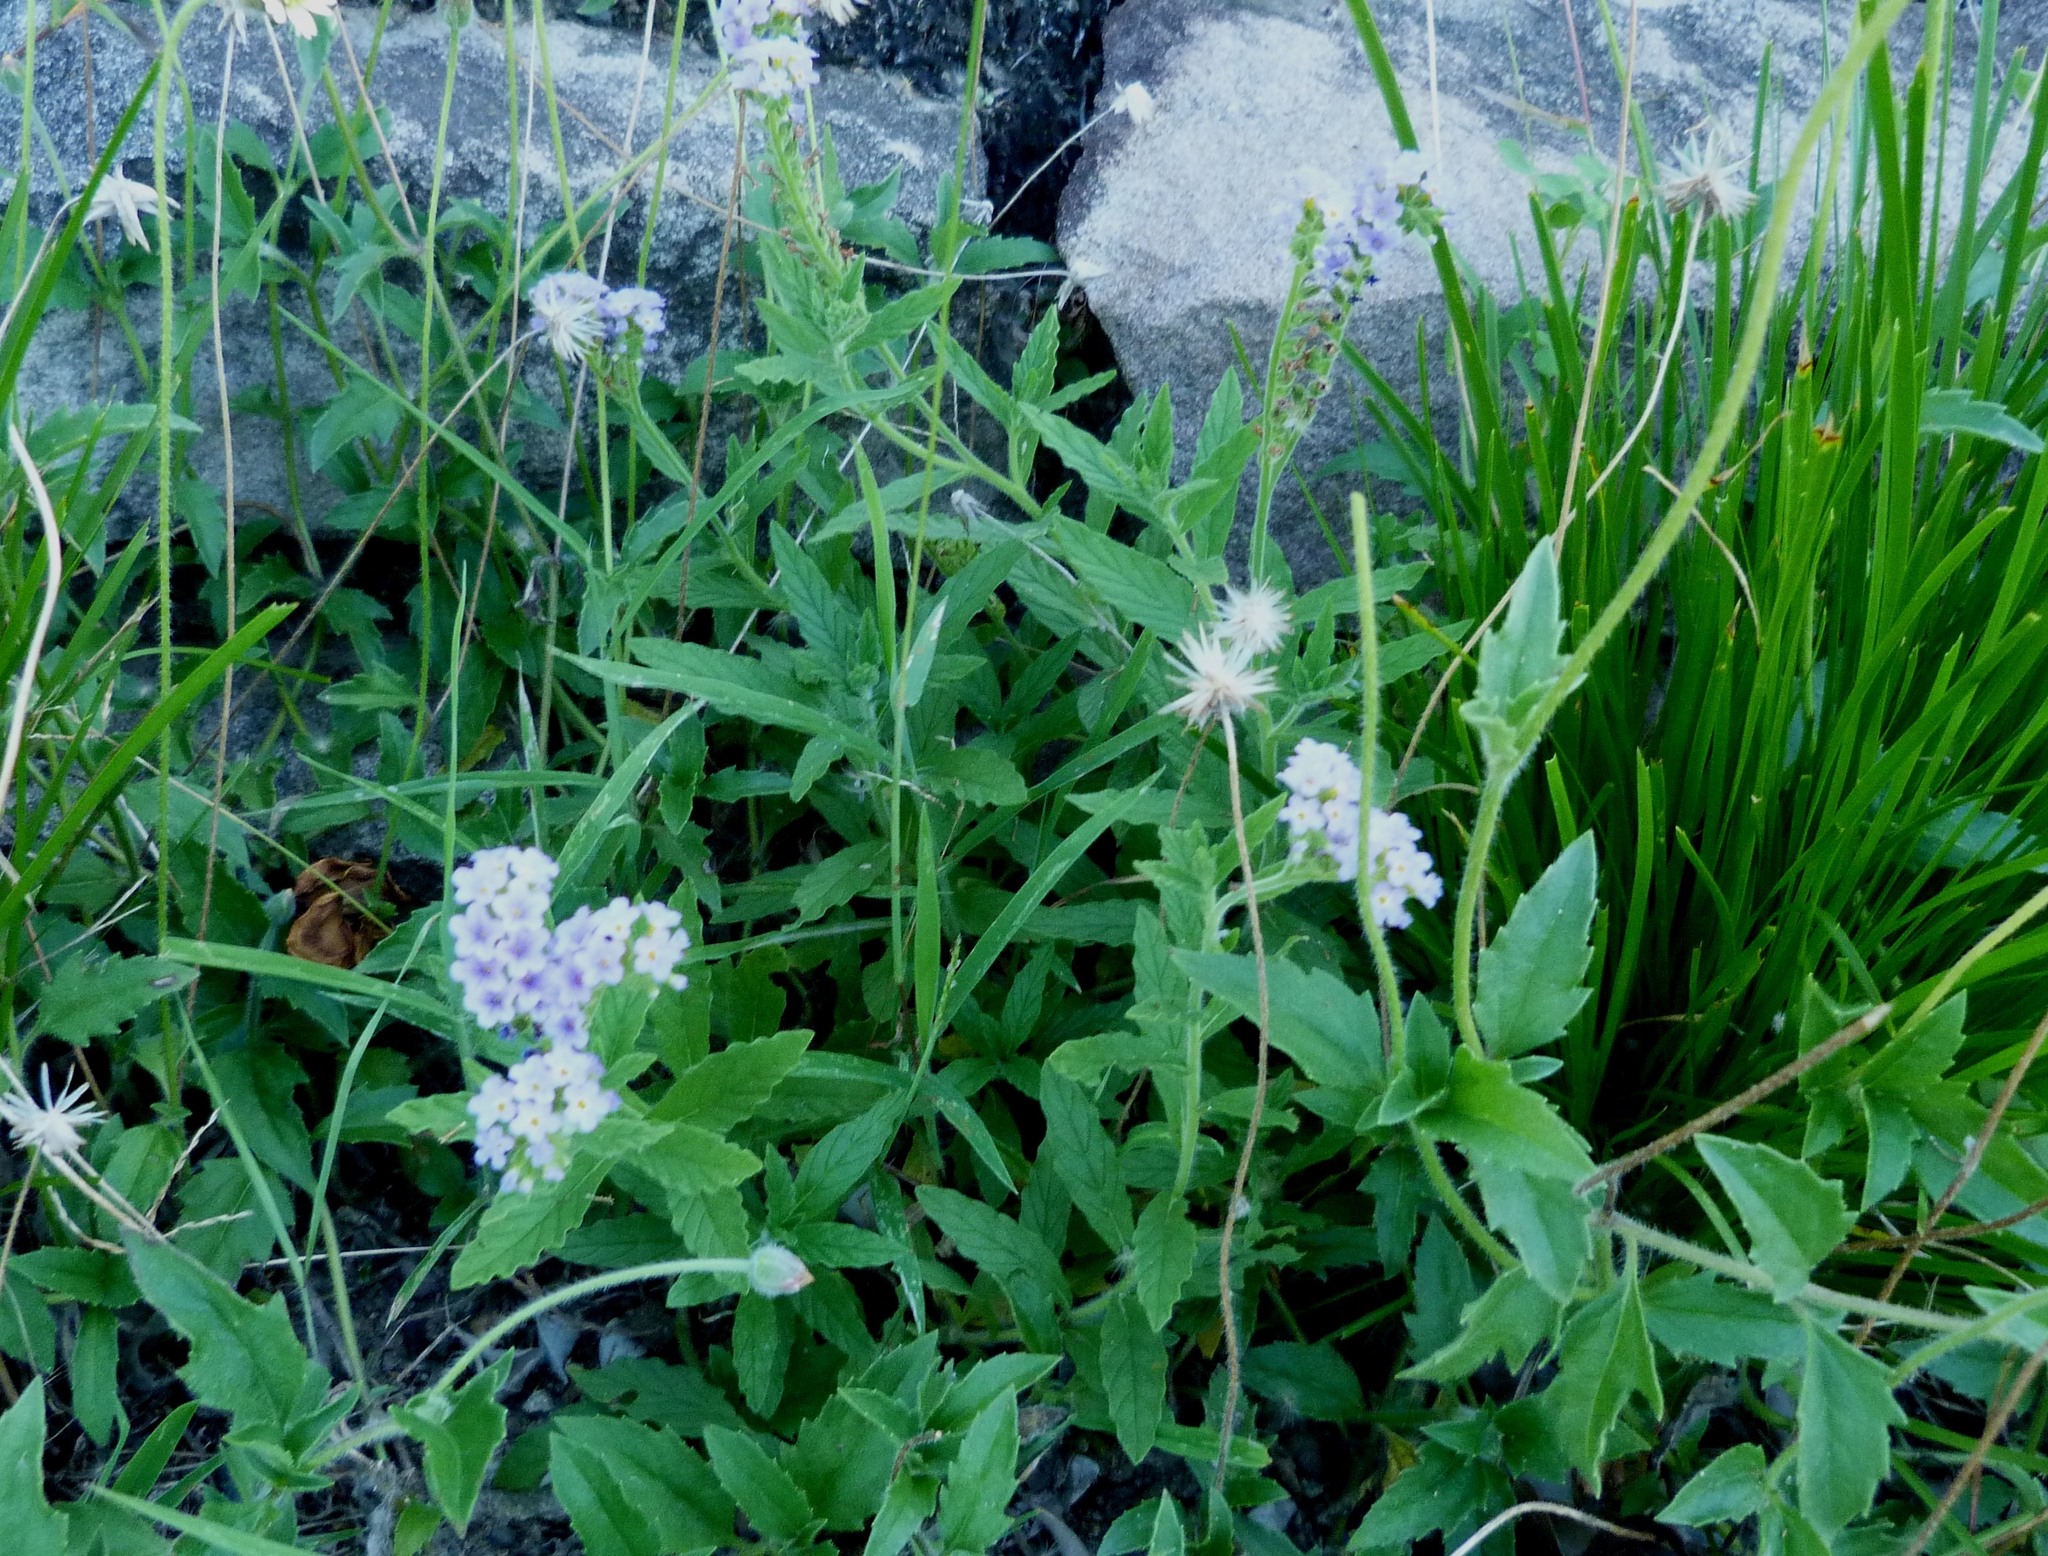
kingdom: Plantae
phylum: Tracheophyta
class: Magnoliopsida
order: Boraginales
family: Heliotropiaceae
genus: Heliotropium
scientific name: Heliotropium amplexicaule
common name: Clasping heliotrope
